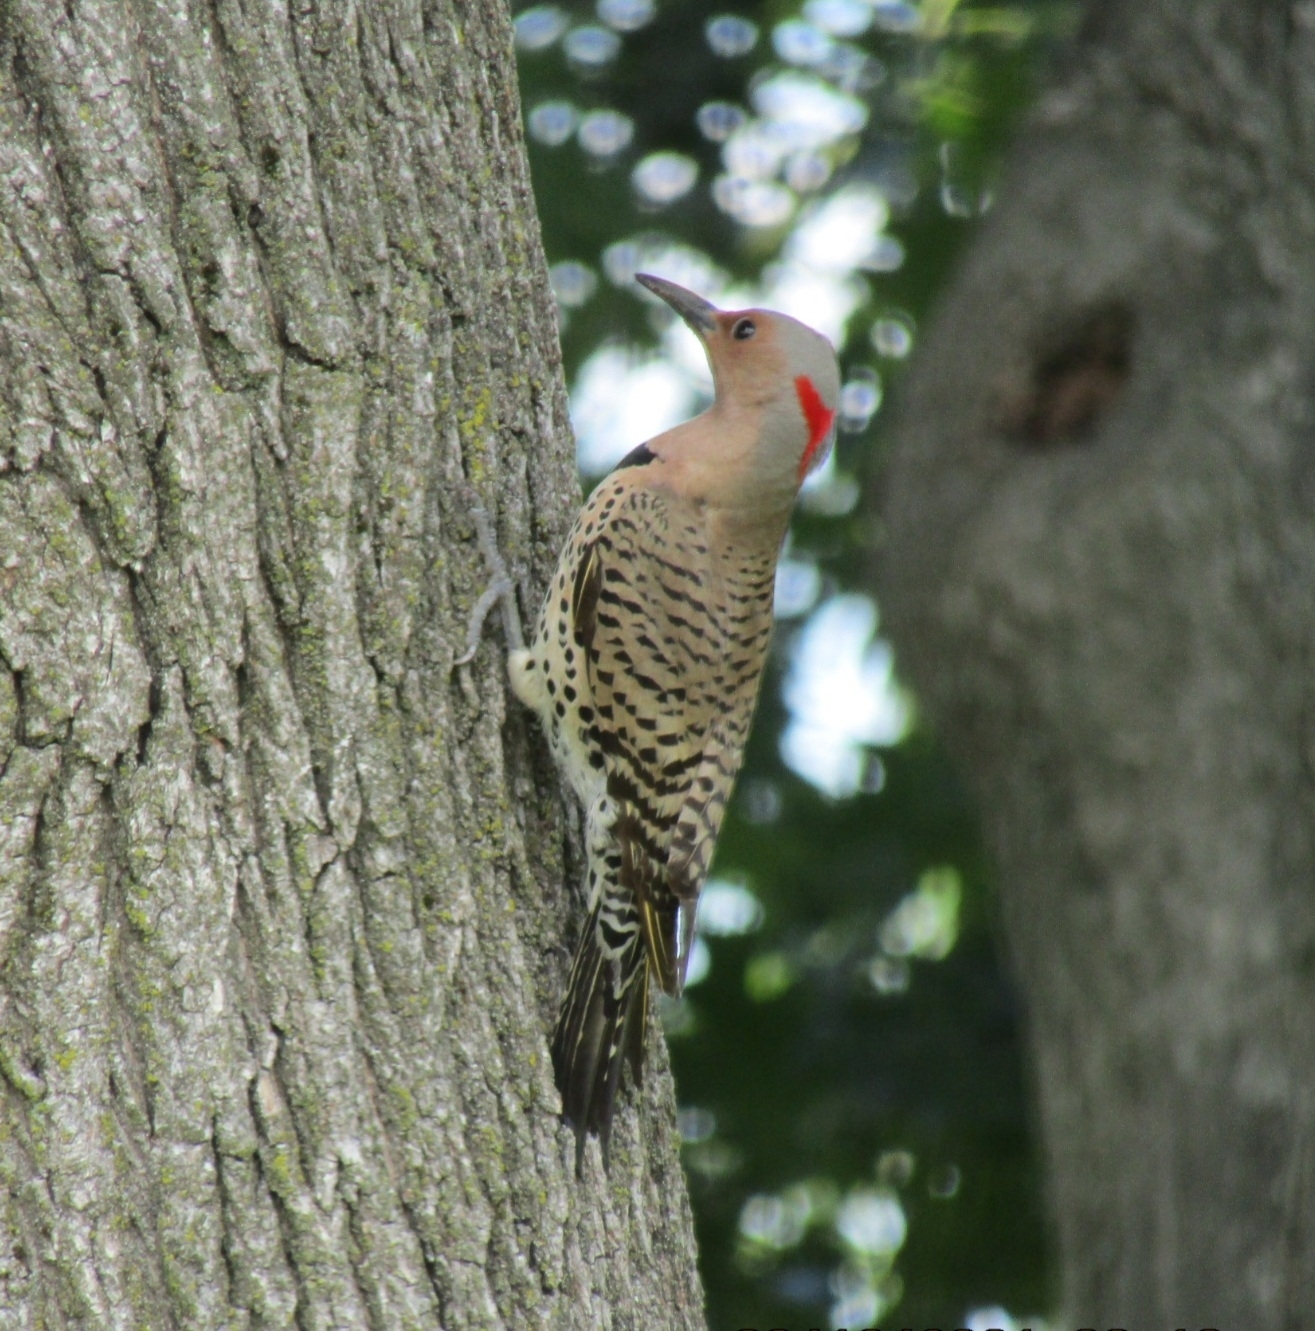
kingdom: Animalia
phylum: Chordata
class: Aves
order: Piciformes
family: Picidae
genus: Colaptes
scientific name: Colaptes auratus
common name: Northern flicker
